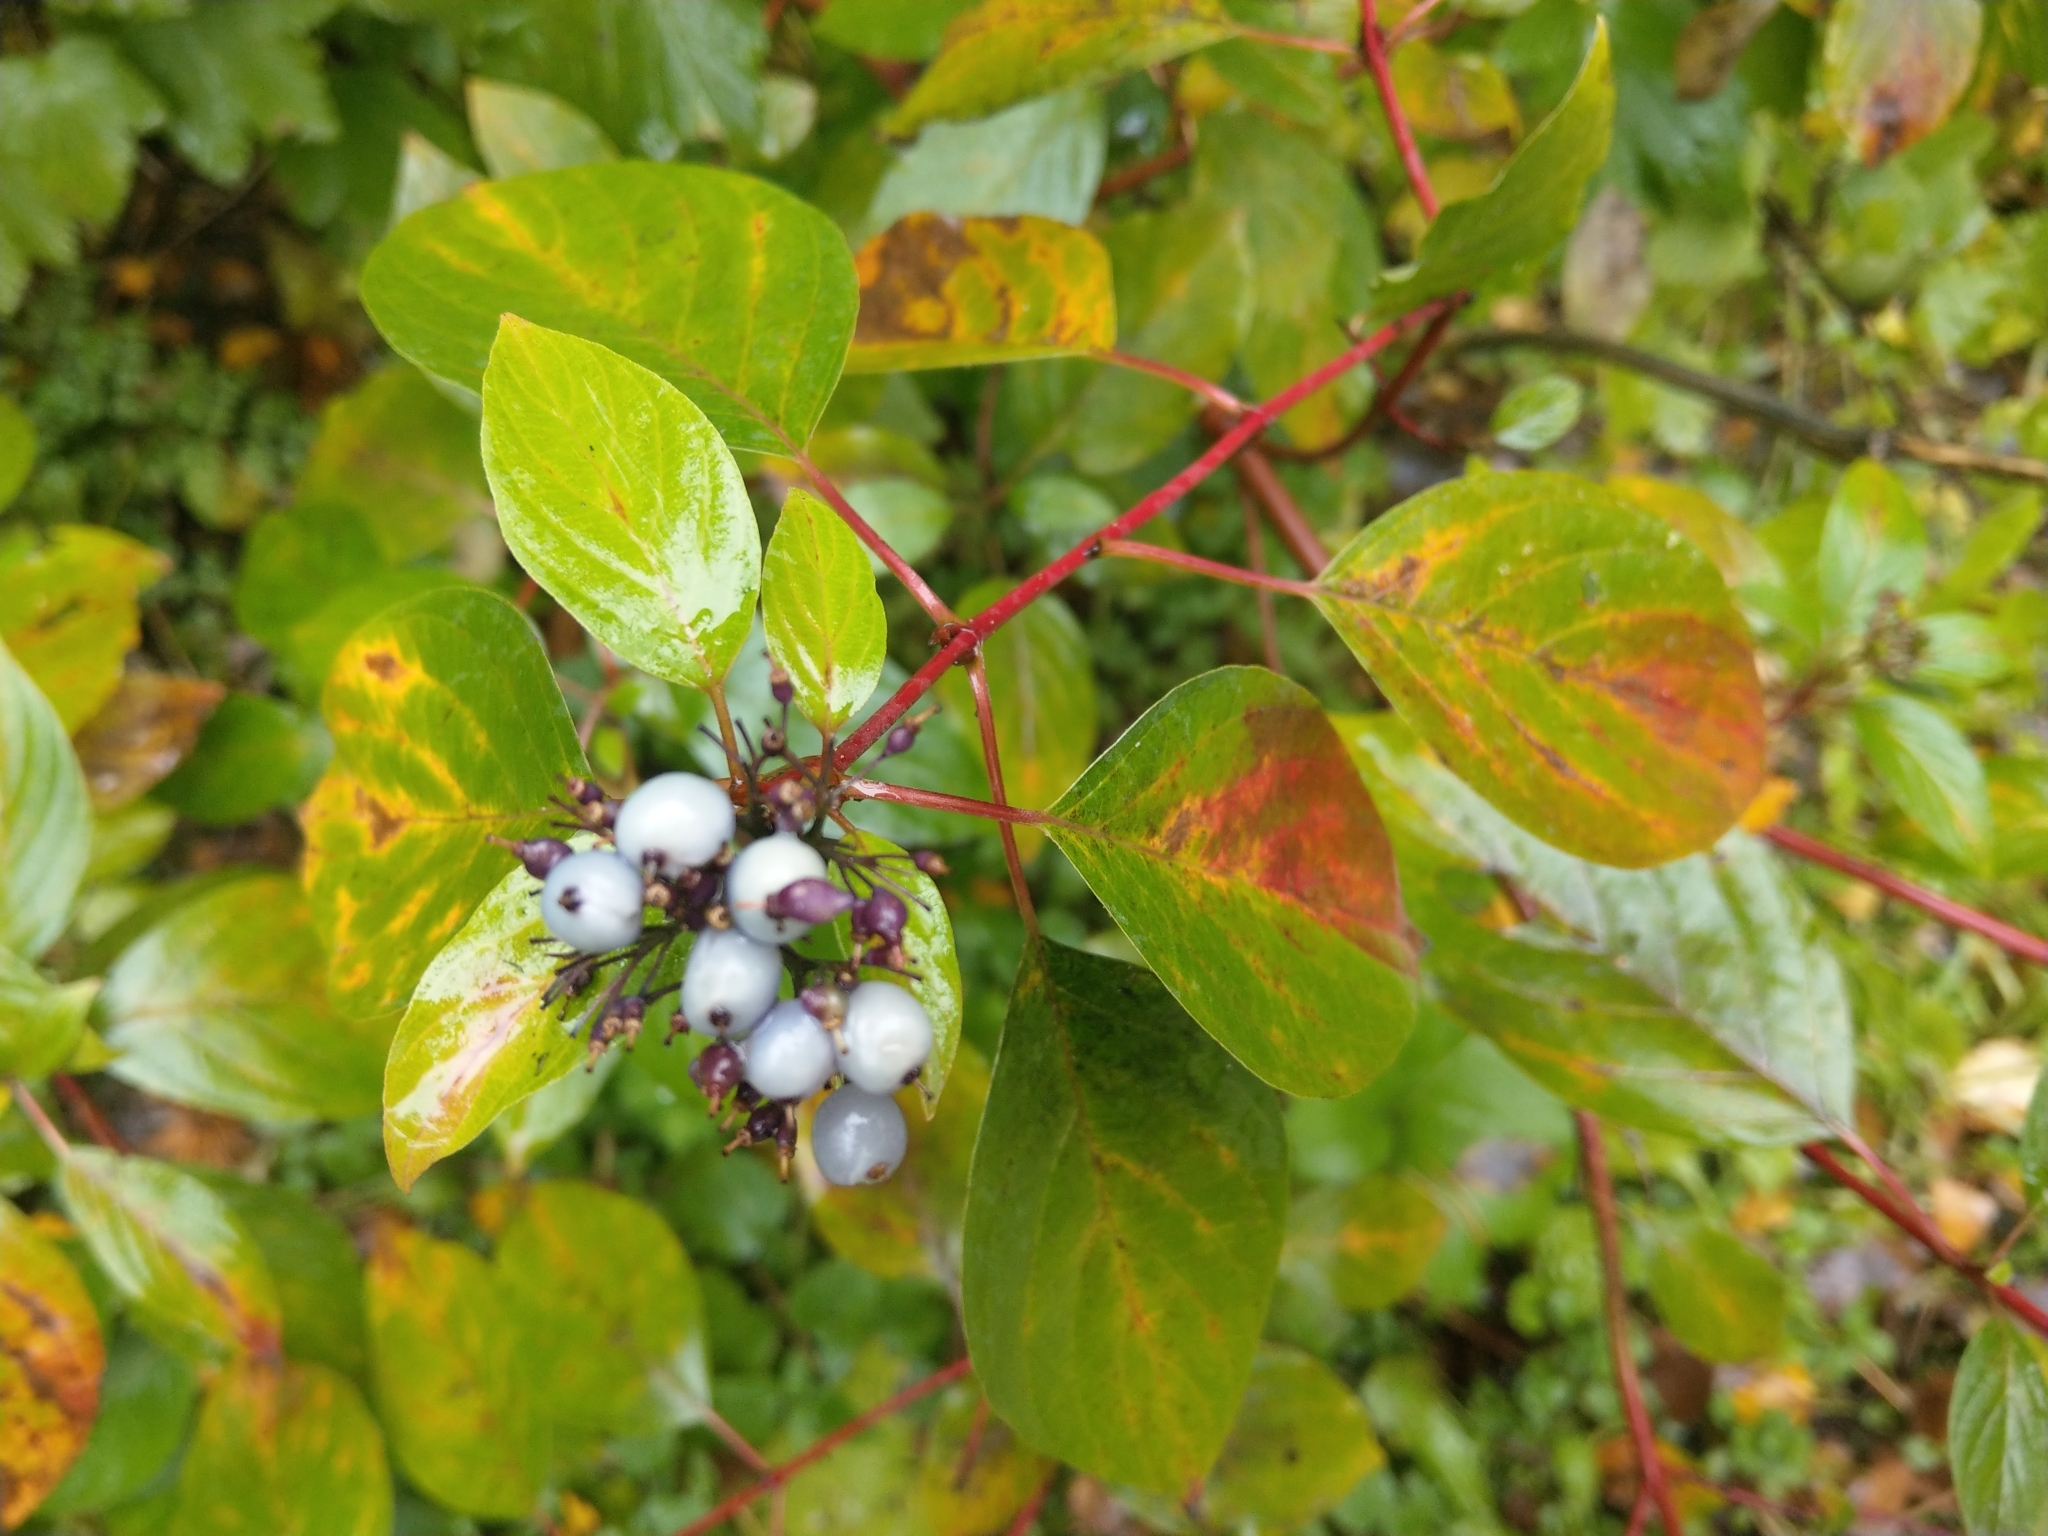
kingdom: Plantae
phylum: Tracheophyta
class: Magnoliopsida
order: Cornales
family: Cornaceae
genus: Cornus
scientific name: Cornus alba
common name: White dogwood
